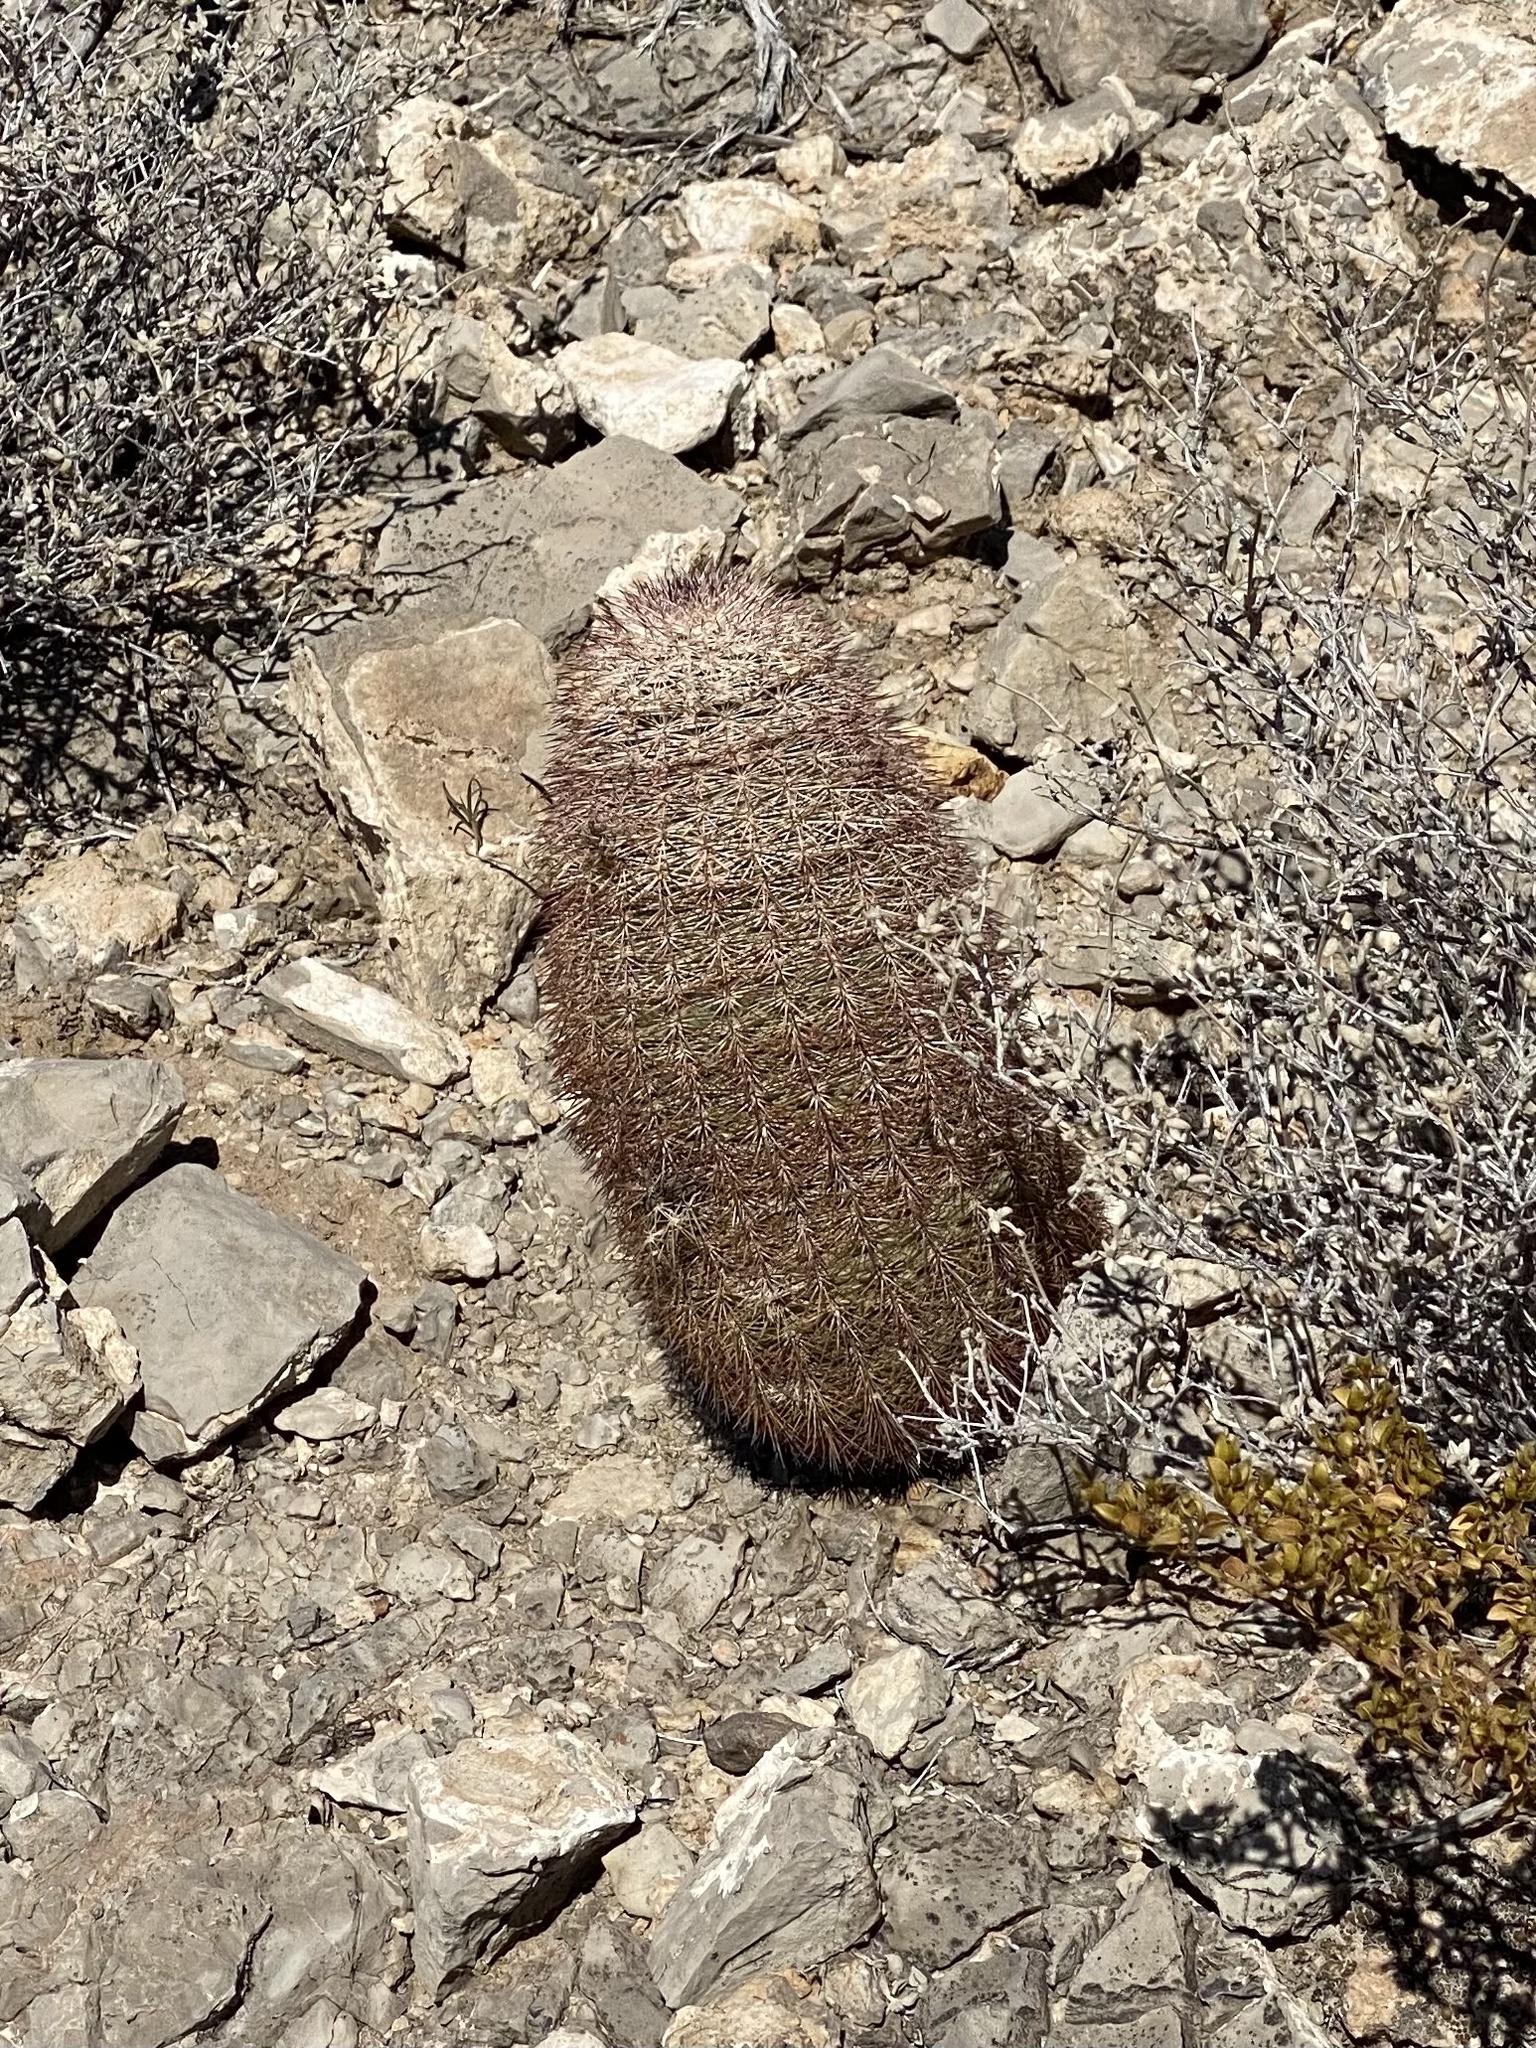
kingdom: Plantae
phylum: Tracheophyta
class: Magnoliopsida
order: Caryophyllales
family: Cactaceae
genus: Echinocereus
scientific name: Echinocereus dasyacanthus
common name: Spiny hedgehog cactus
